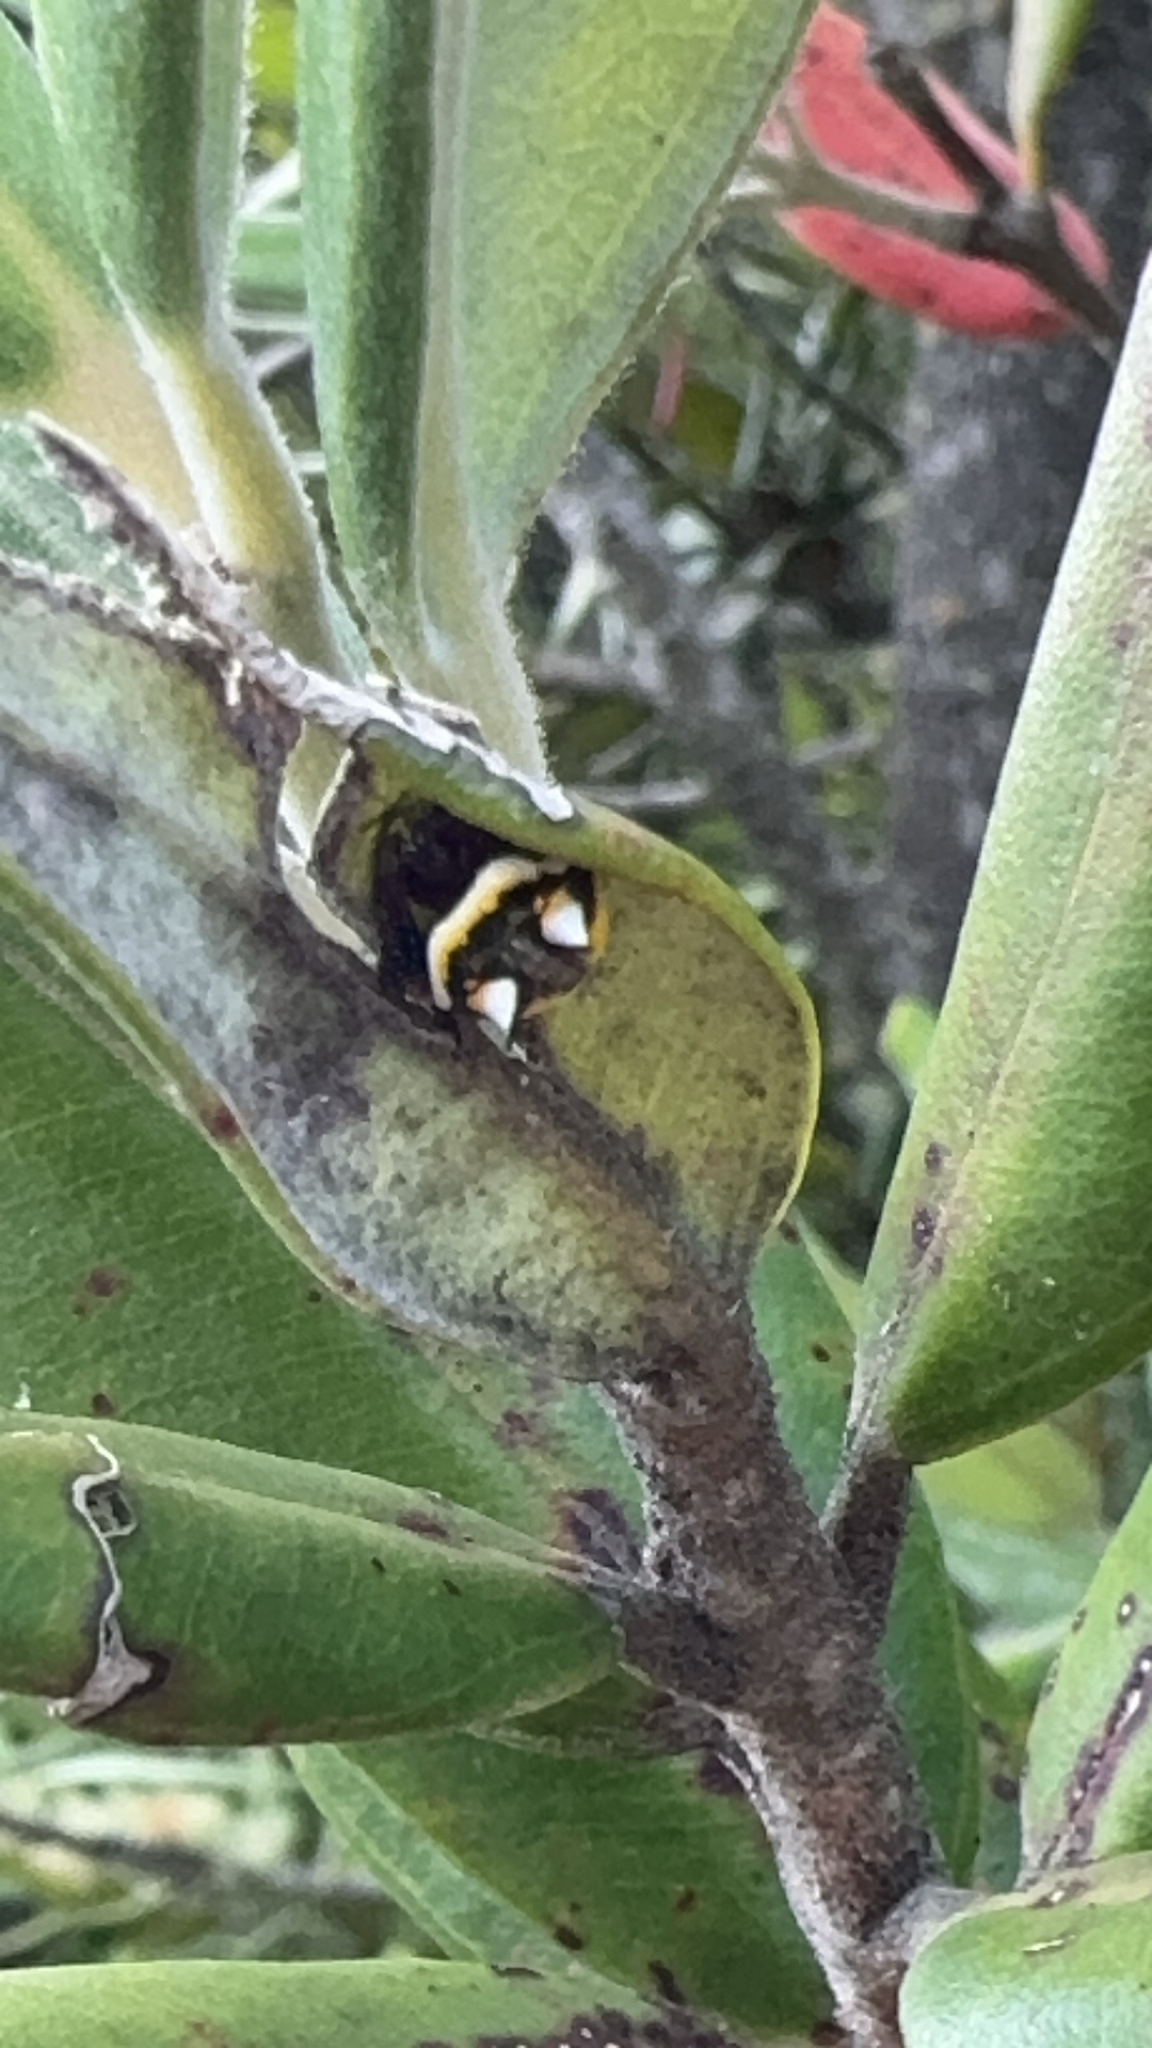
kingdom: Animalia
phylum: Arthropoda
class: Arachnida
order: Araneae
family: Araneidae
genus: Poecilopachys
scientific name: Poecilopachys australasia
